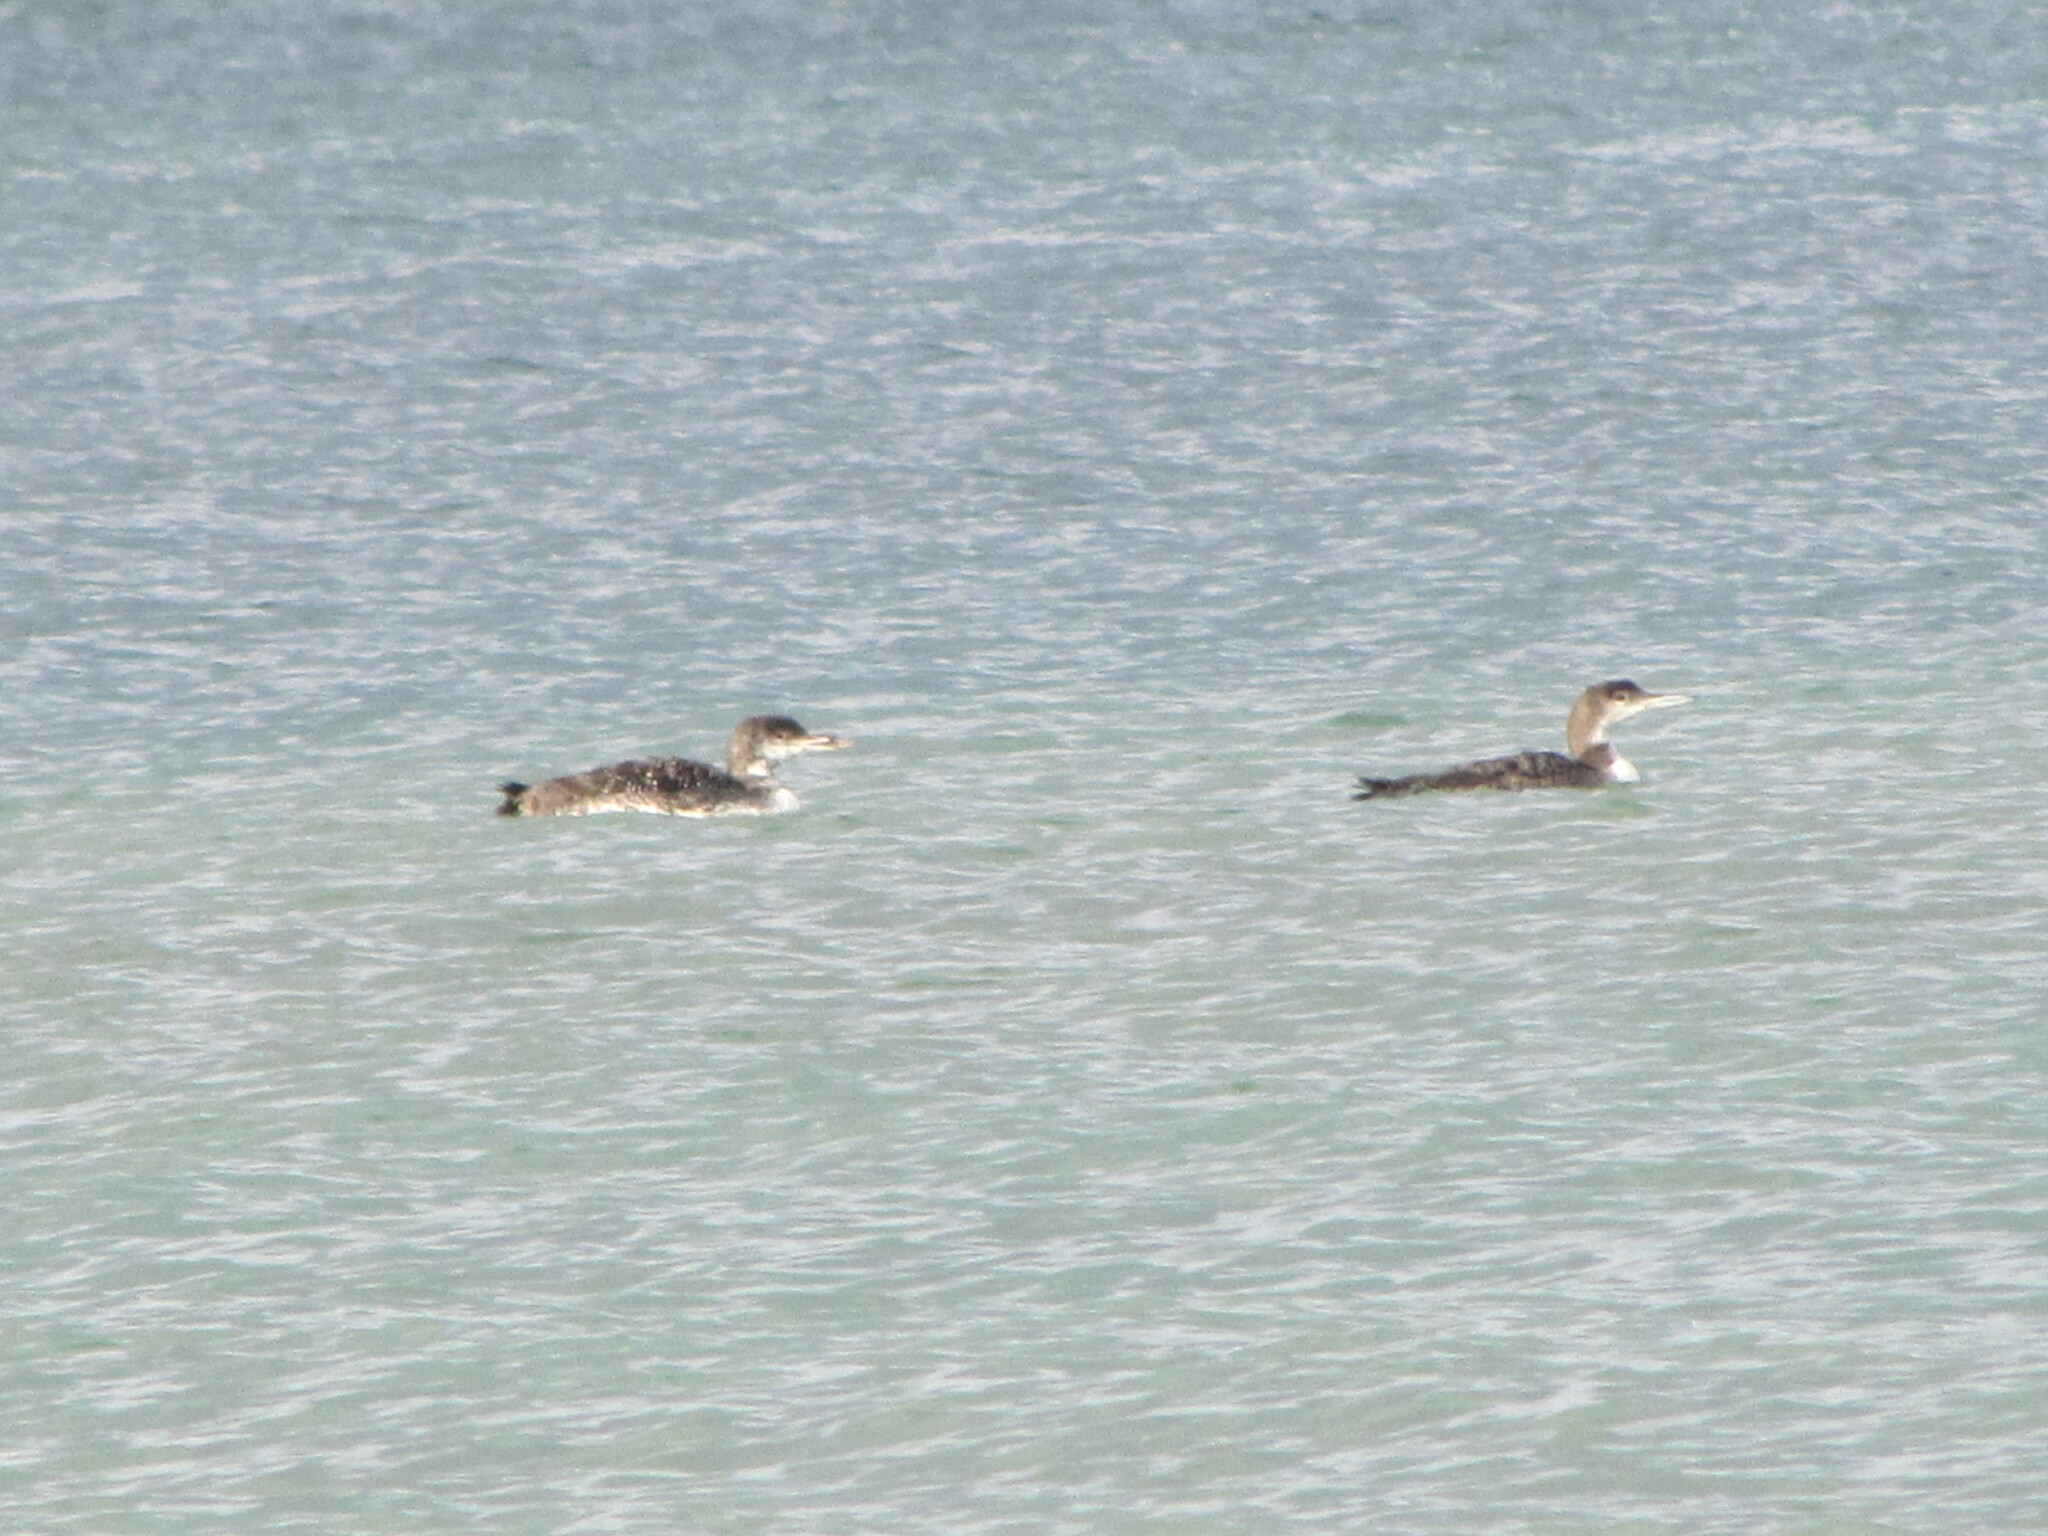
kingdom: Animalia
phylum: Chordata
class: Aves
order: Gaviiformes
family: Gaviidae
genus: Gavia
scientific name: Gavia immer
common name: Common loon
